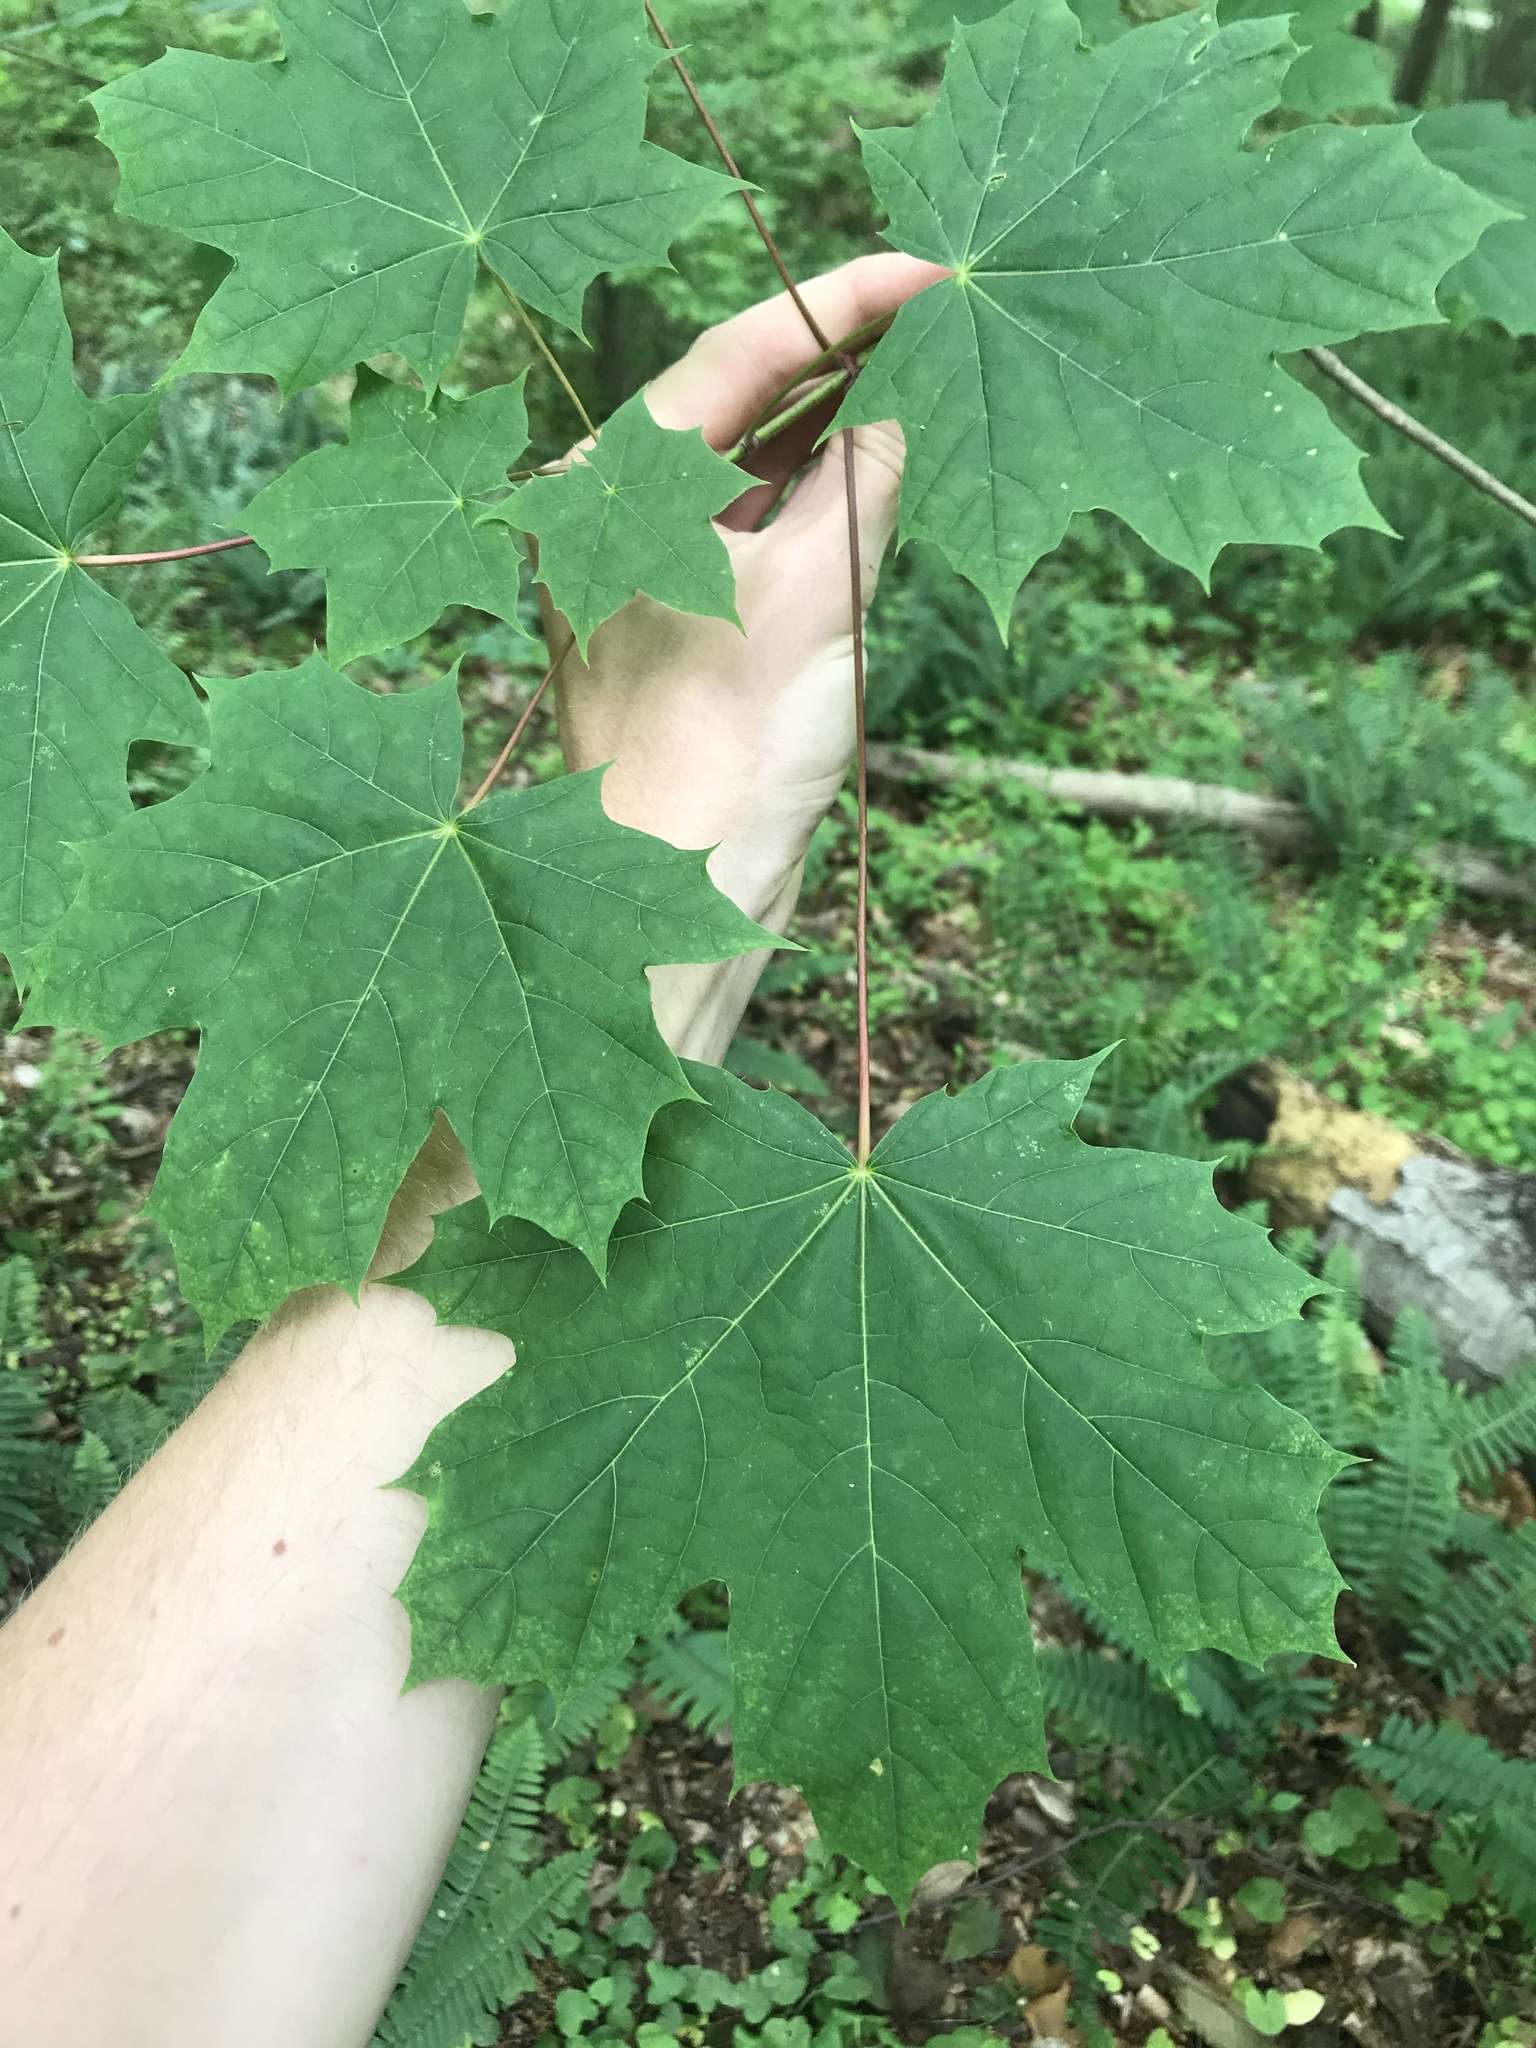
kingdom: Plantae
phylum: Tracheophyta
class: Magnoliopsida
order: Sapindales
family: Sapindaceae
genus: Acer
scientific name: Acer platanoides
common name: Norway maple
